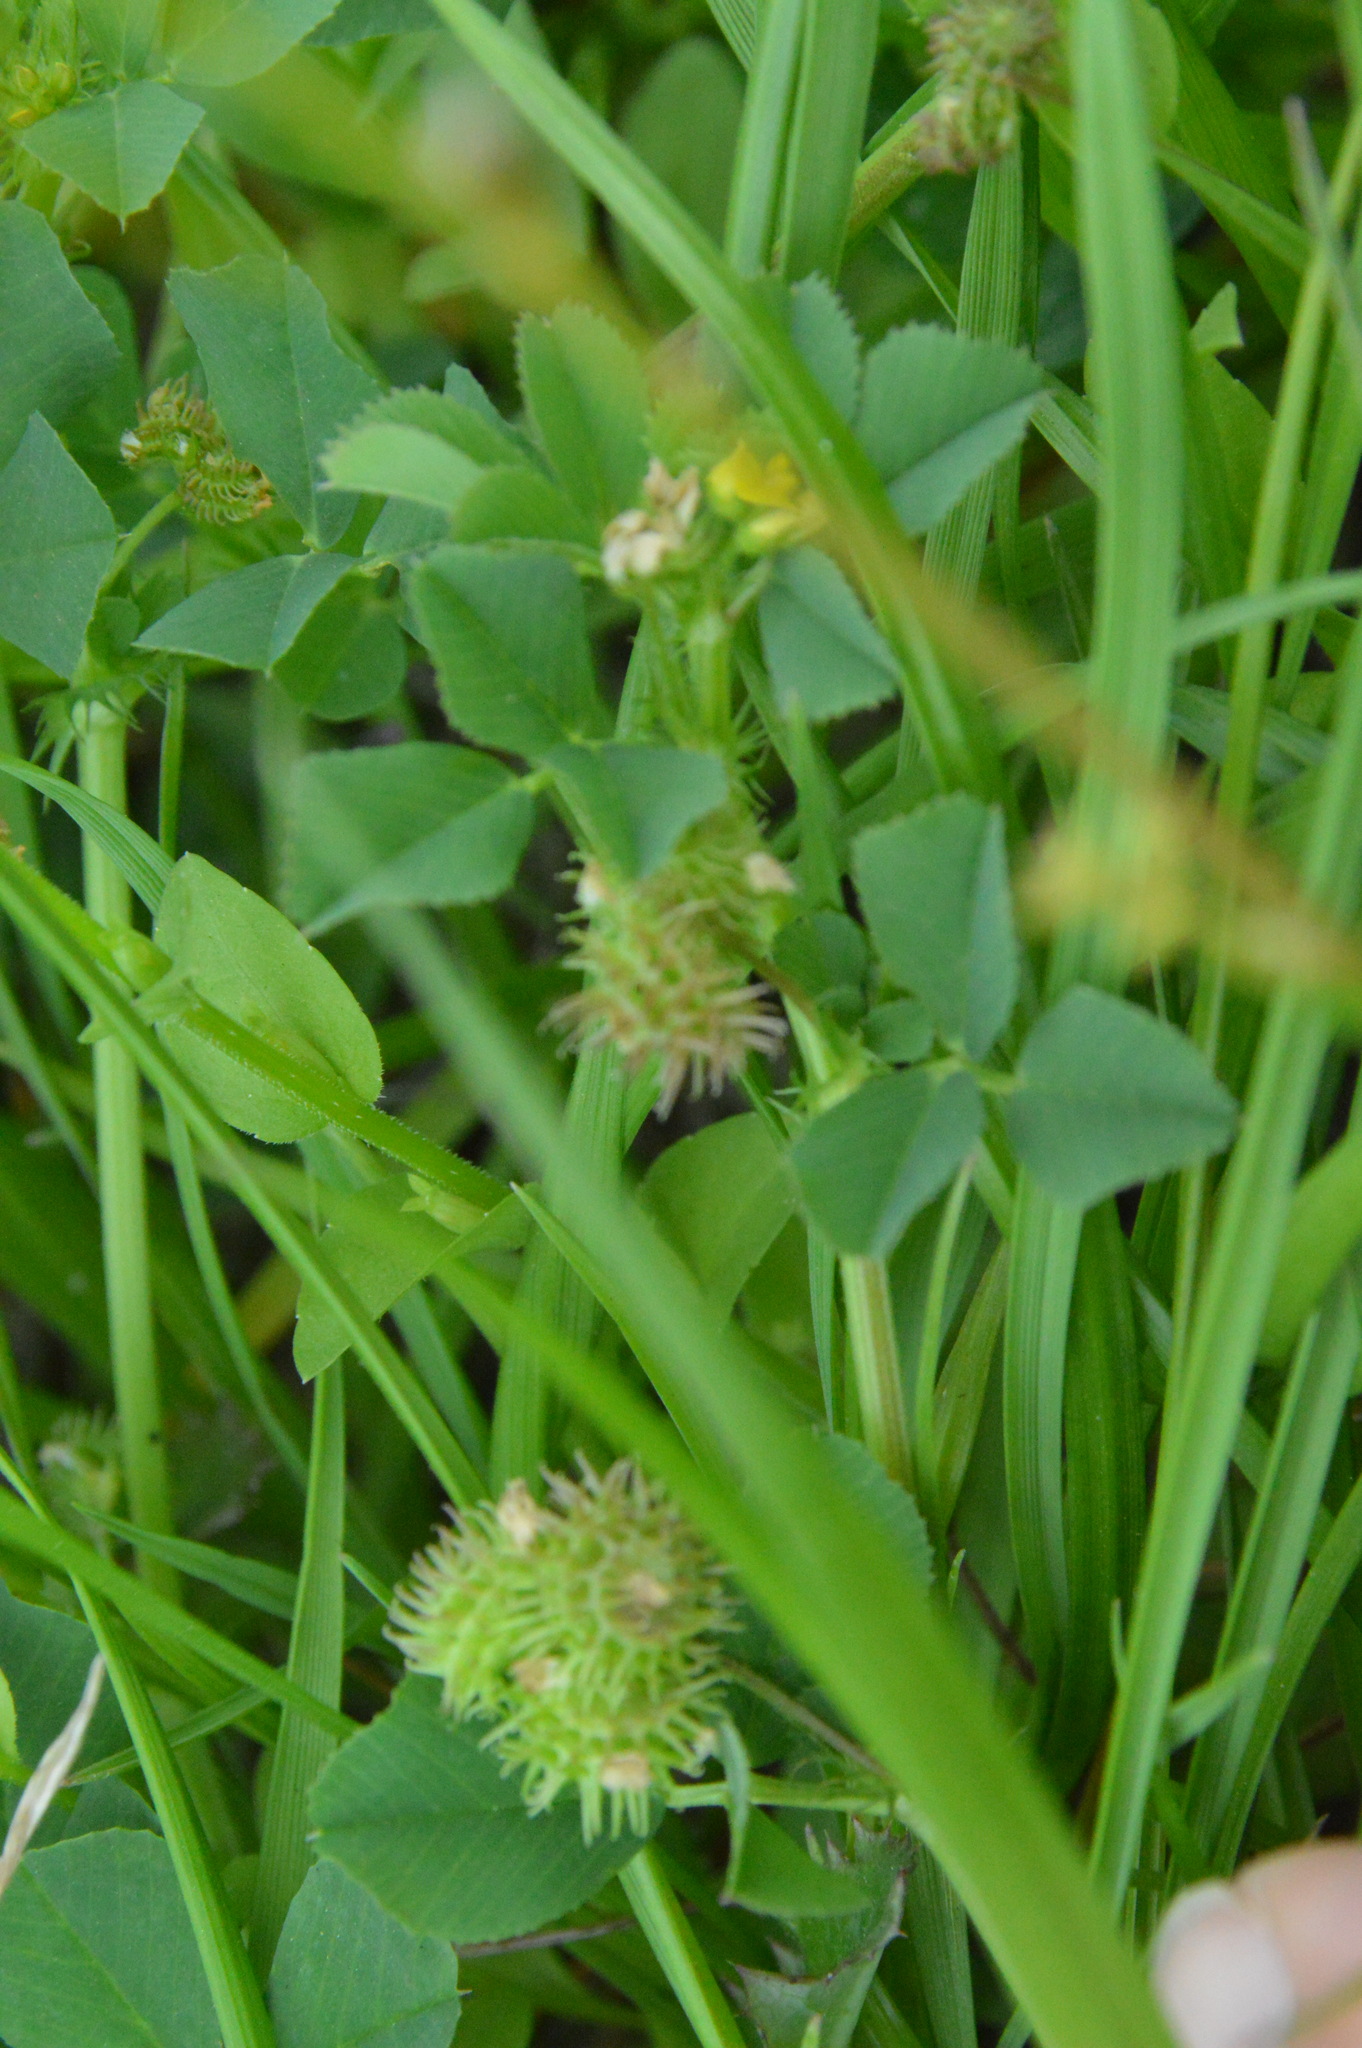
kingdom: Plantae
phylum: Tracheophyta
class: Magnoliopsida
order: Fabales
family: Fabaceae
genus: Medicago
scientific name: Medicago polymorpha
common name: Burclover
